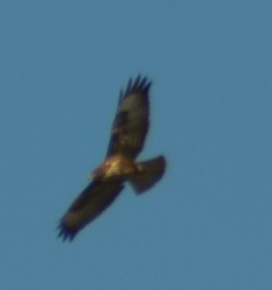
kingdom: Animalia
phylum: Chordata
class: Aves
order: Accipitriformes
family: Accipitridae
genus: Buteo
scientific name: Buteo buteo
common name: Common buzzard
